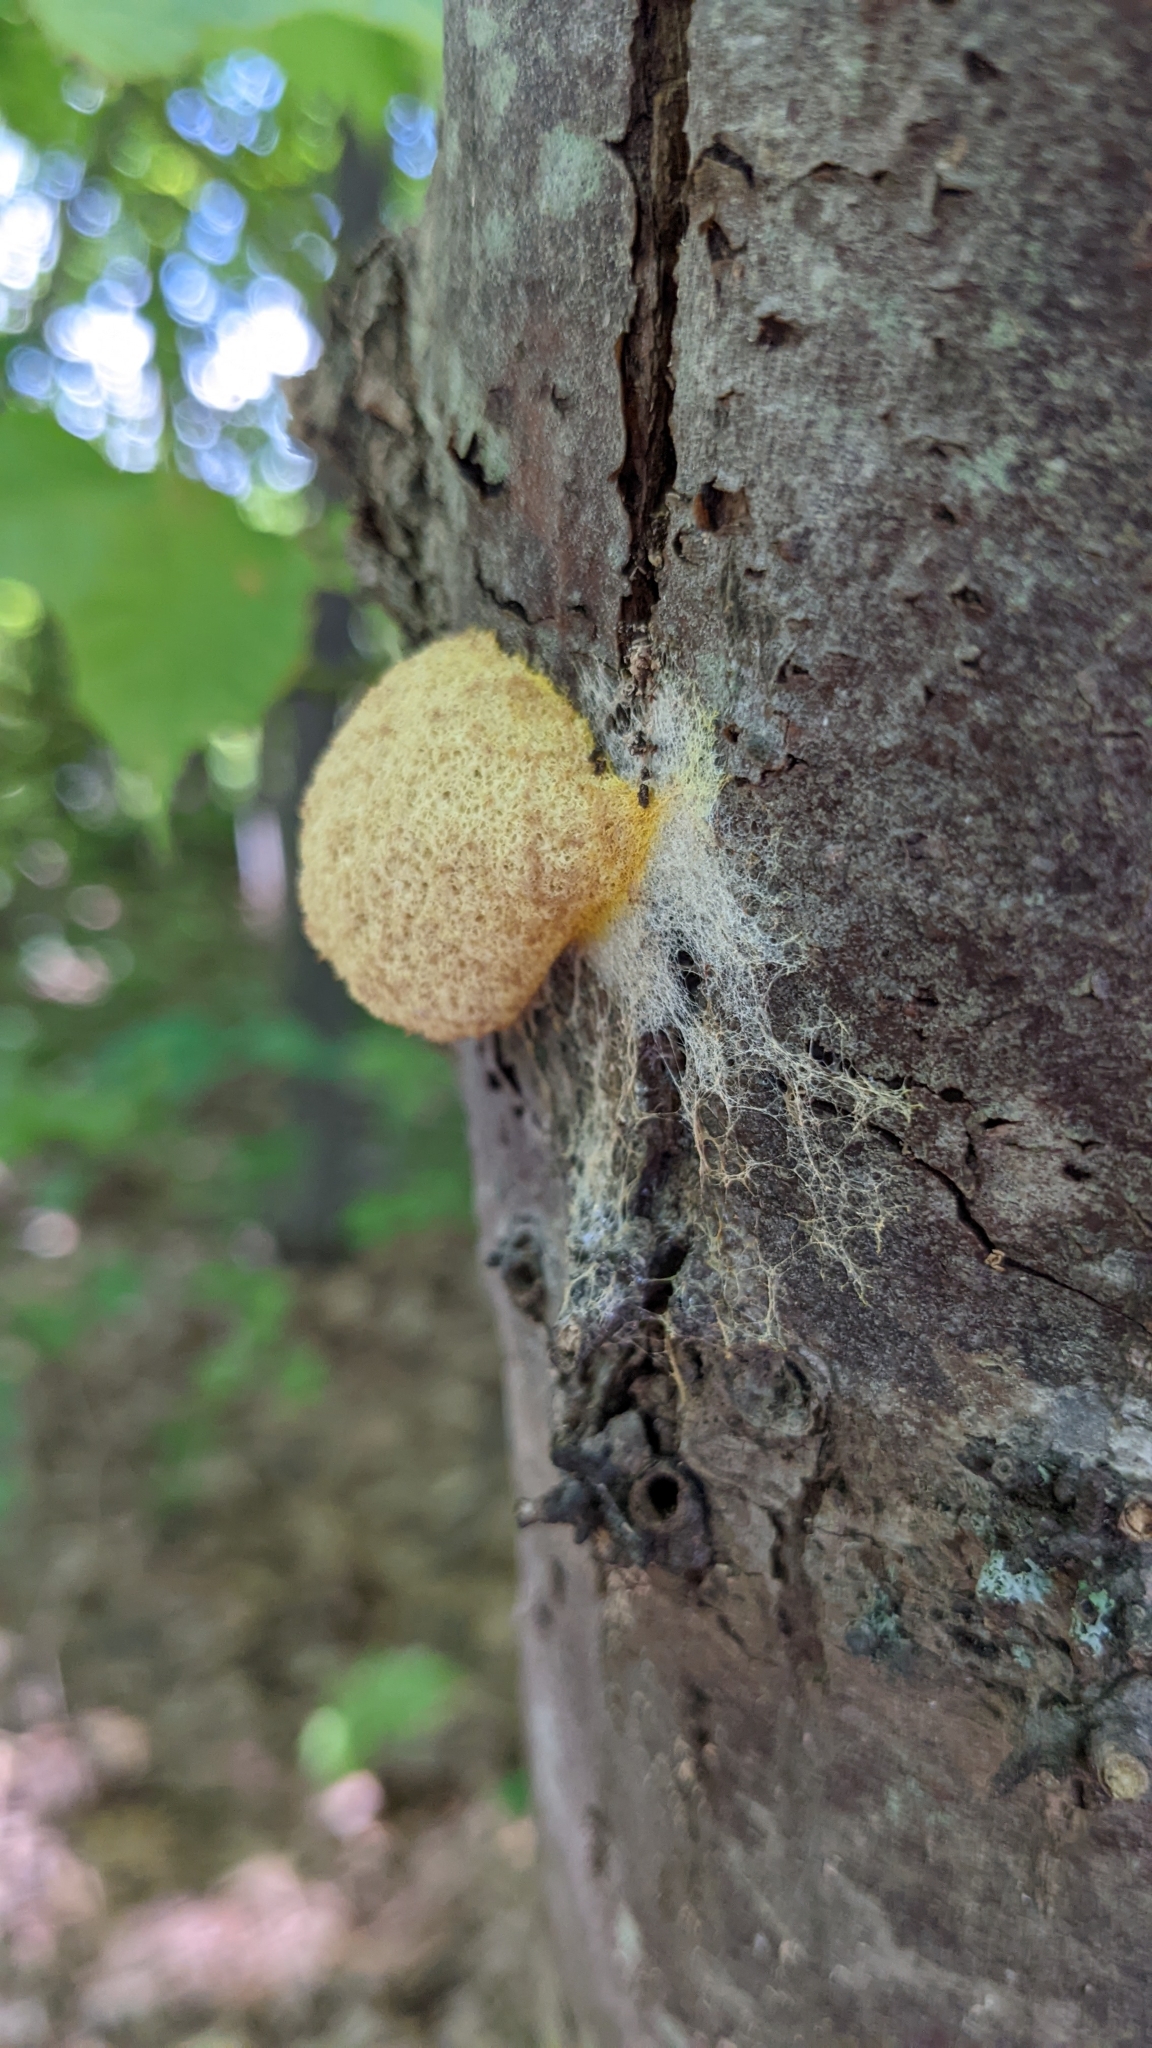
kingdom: Protozoa
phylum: Mycetozoa
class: Myxomycetes
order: Physarales
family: Physaraceae
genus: Fuligo
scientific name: Fuligo septica
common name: Dog vomit slime mold
